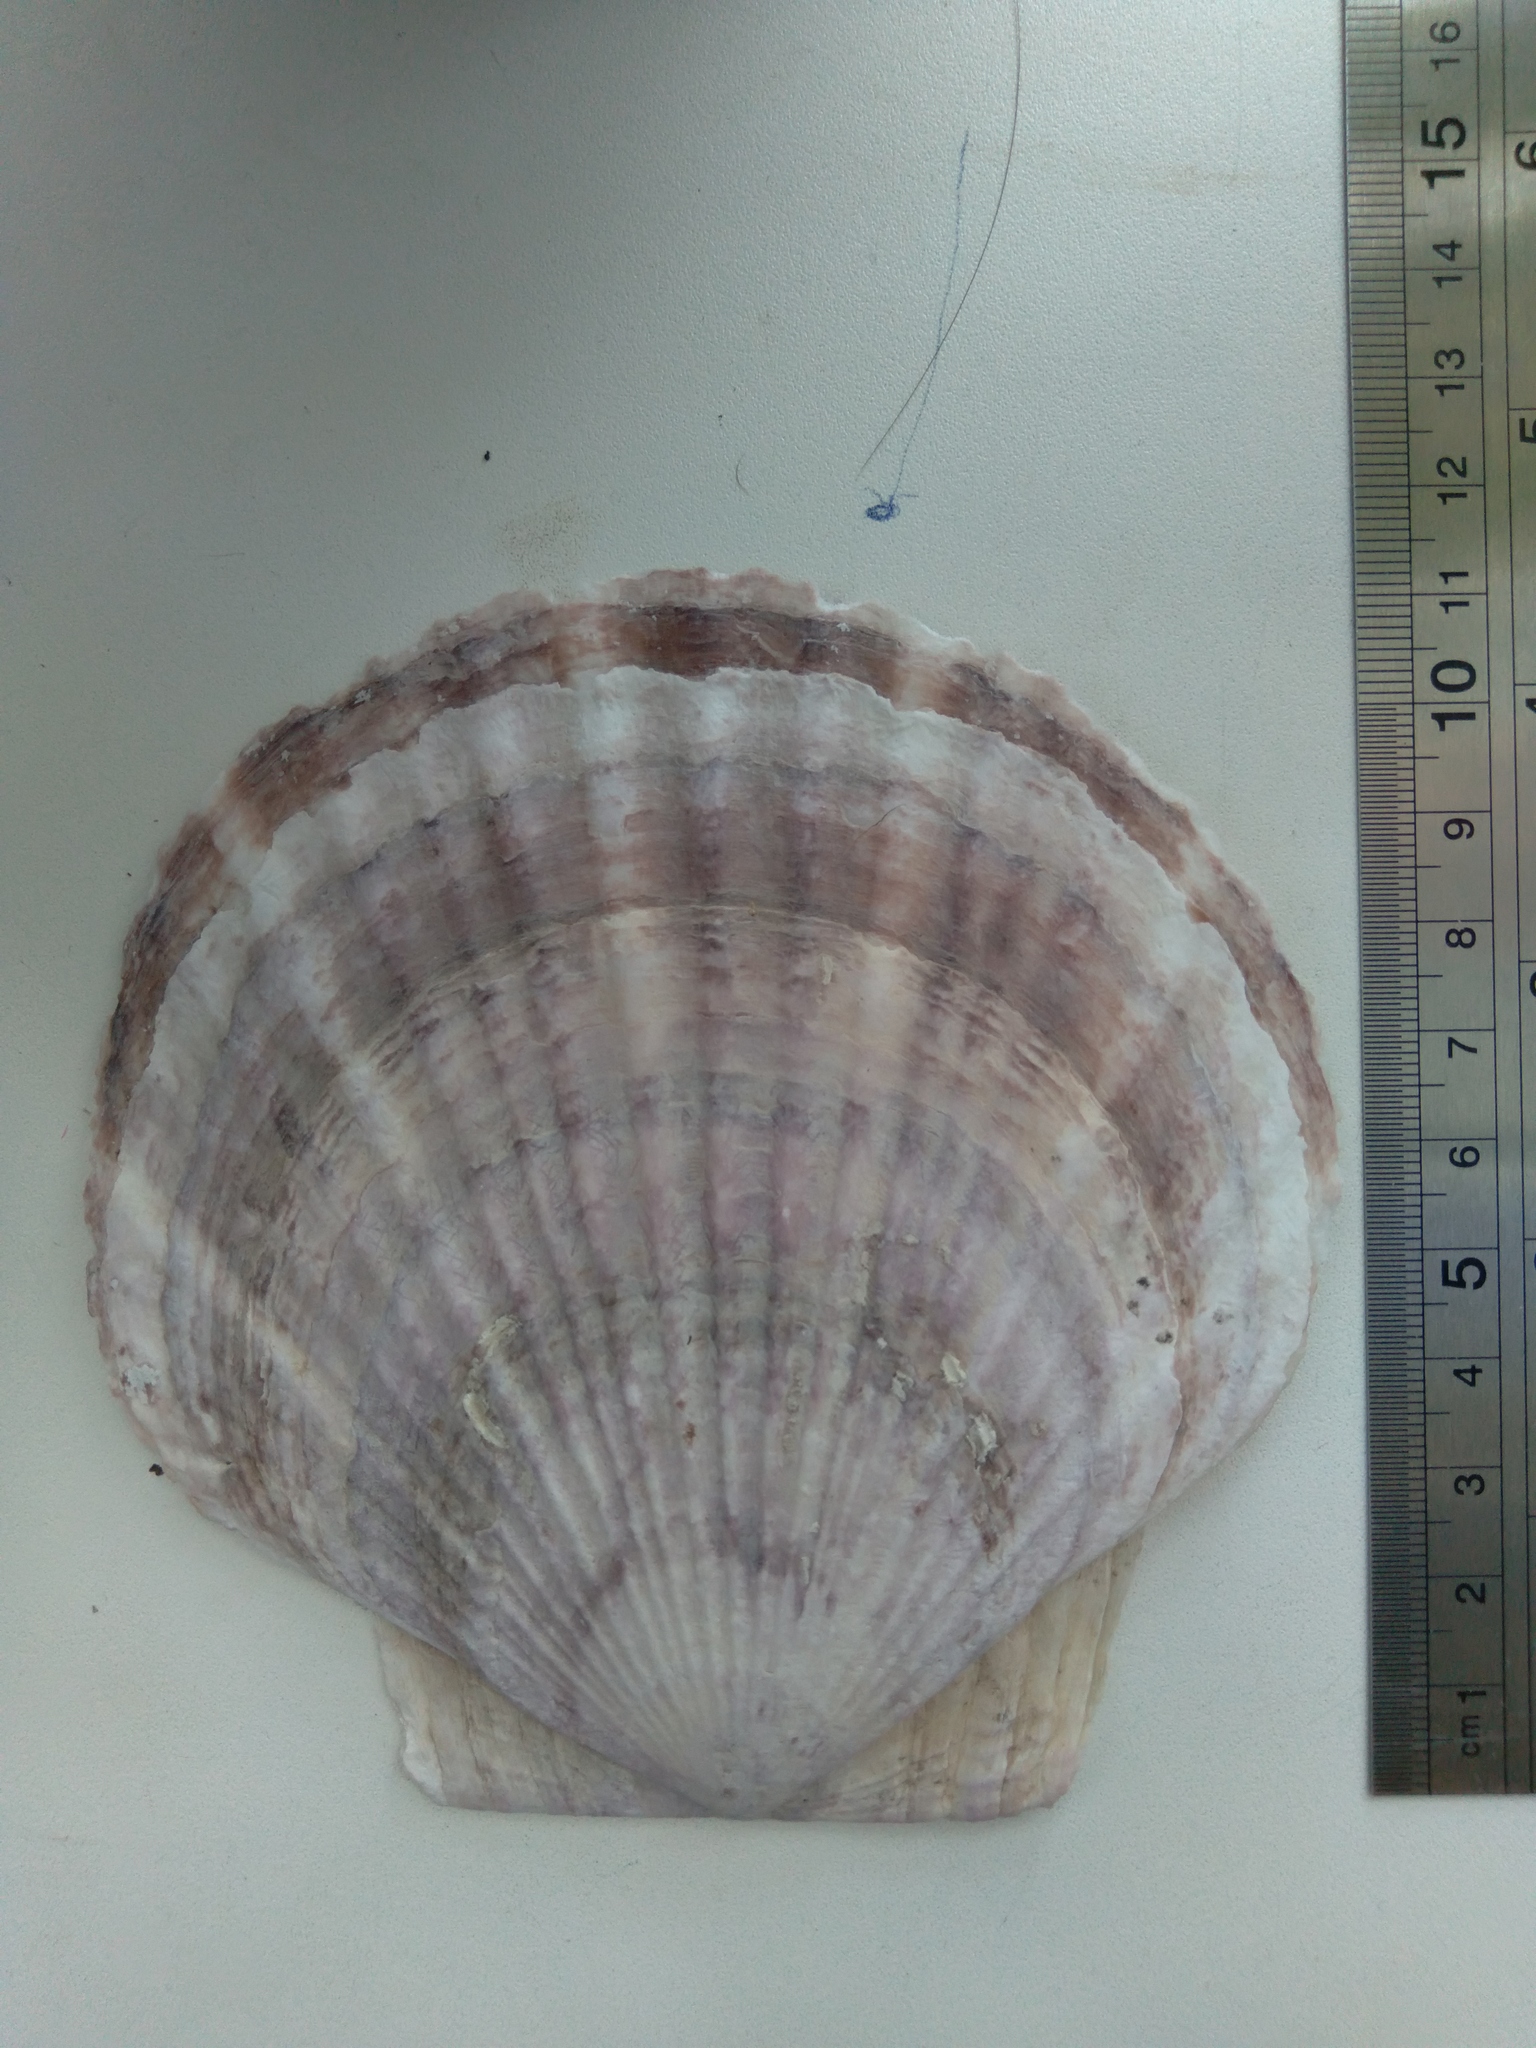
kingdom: Animalia
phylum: Mollusca
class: Bivalvia
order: Pectinida
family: Pectinidae
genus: Mizuhopecten
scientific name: Mizuhopecten yessoensis
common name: Ezo giant scallop
